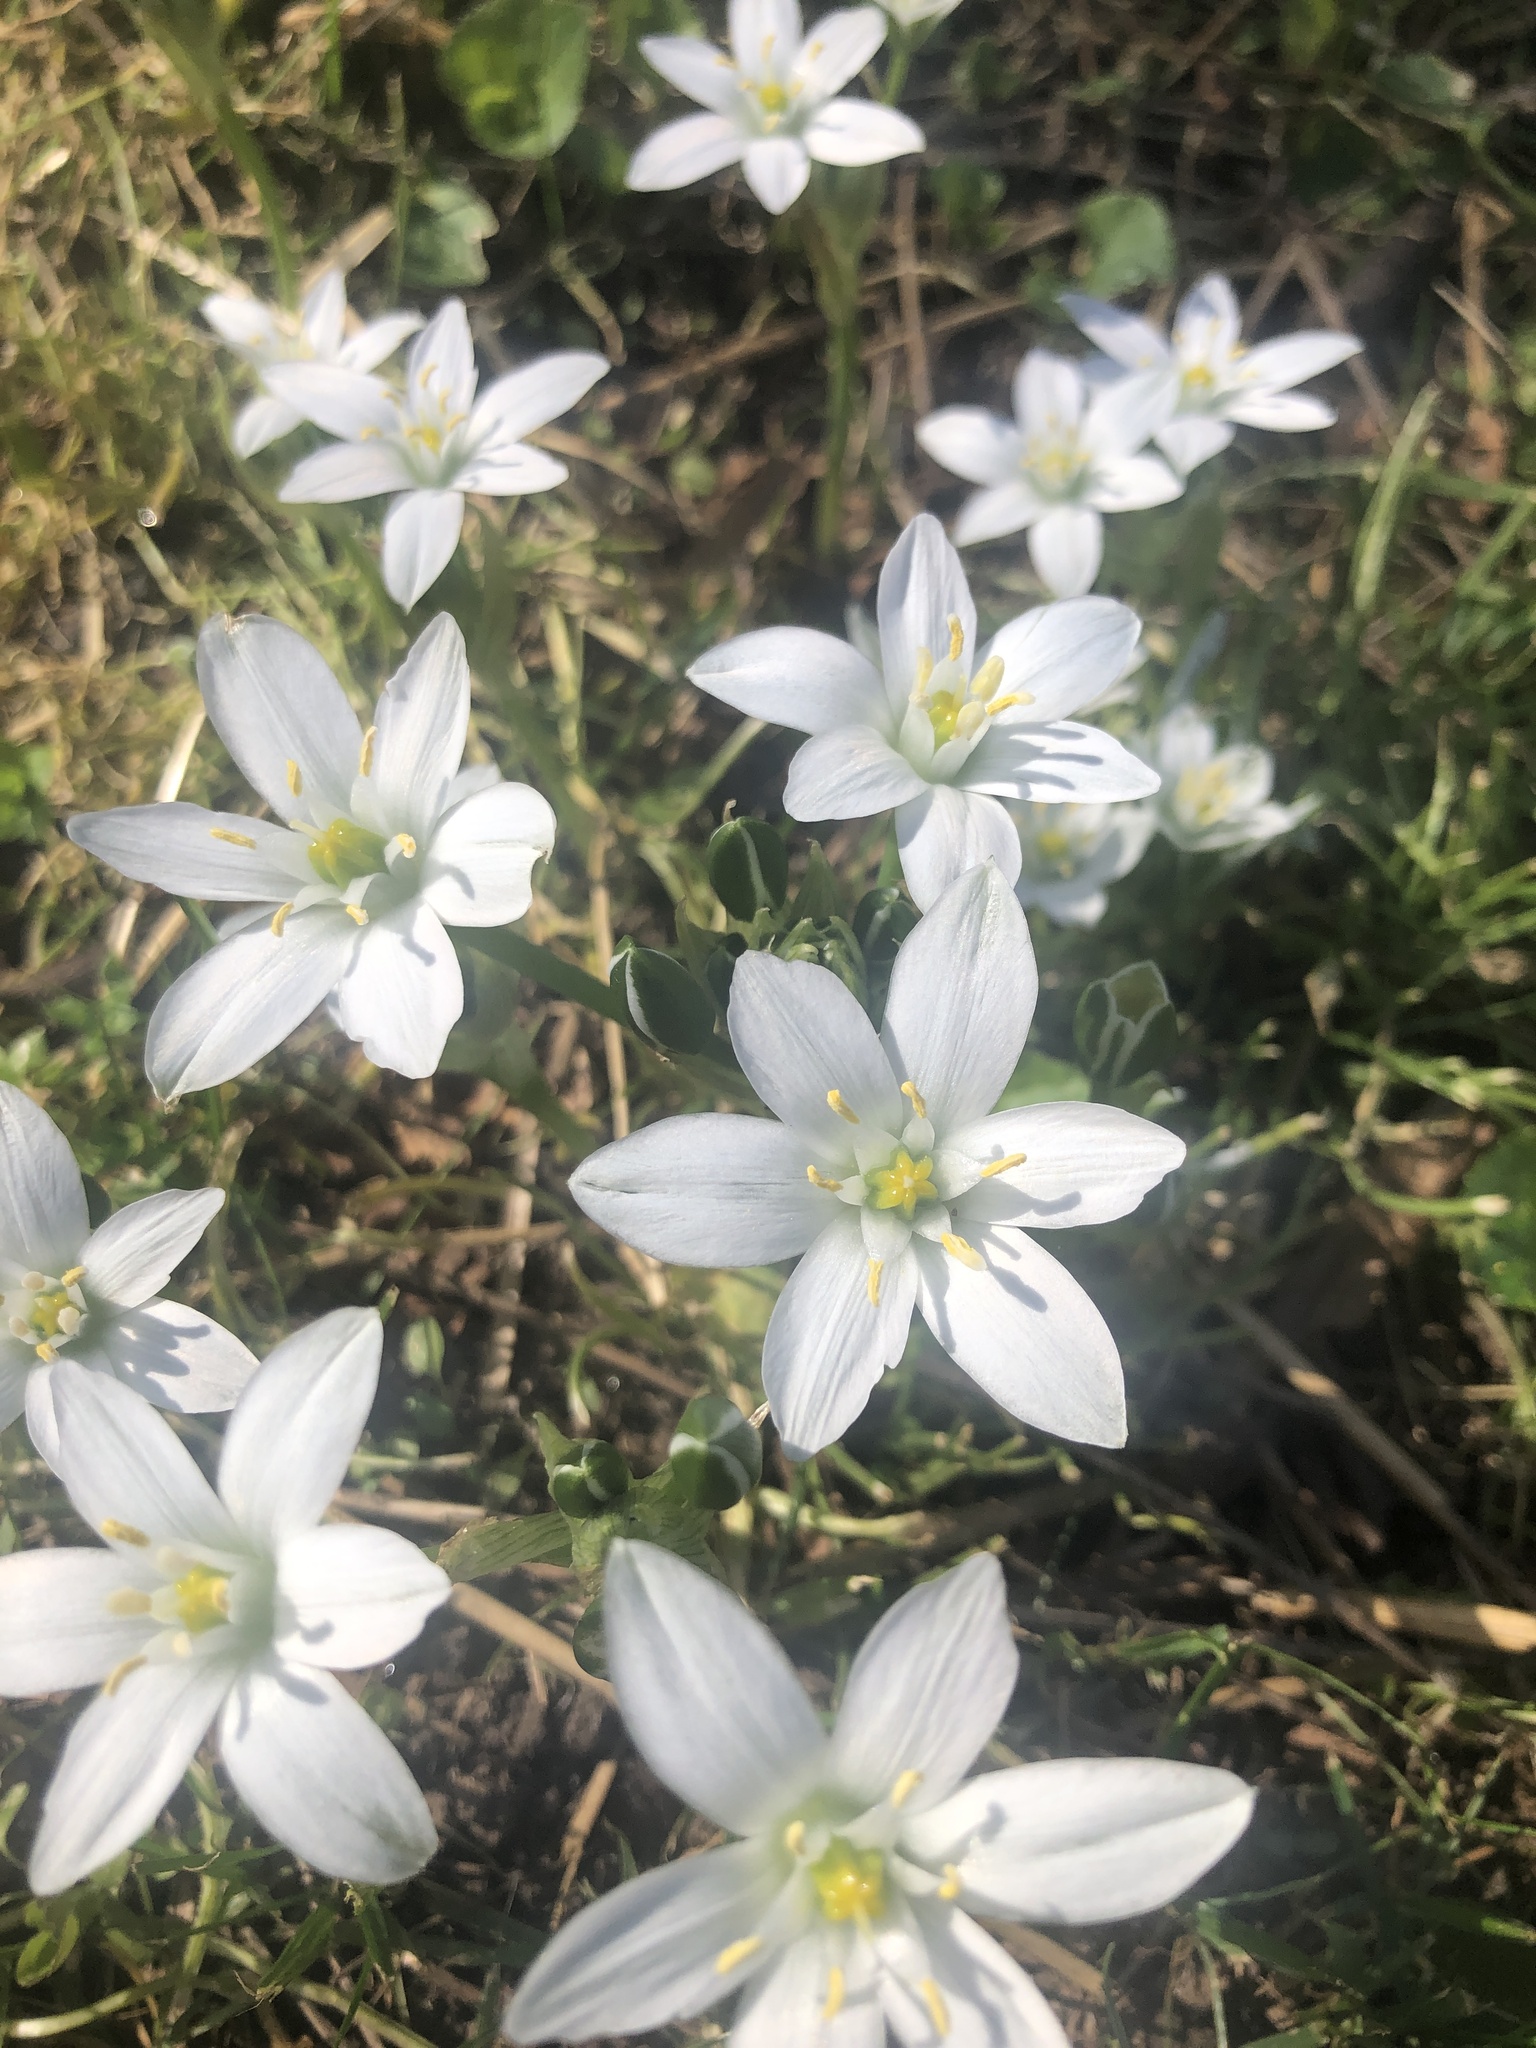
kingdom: Plantae
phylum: Tracheophyta
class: Liliopsida
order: Asparagales
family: Asparagaceae
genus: Ornithogalum
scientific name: Ornithogalum umbellatum
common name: Garden star-of-bethlehem
